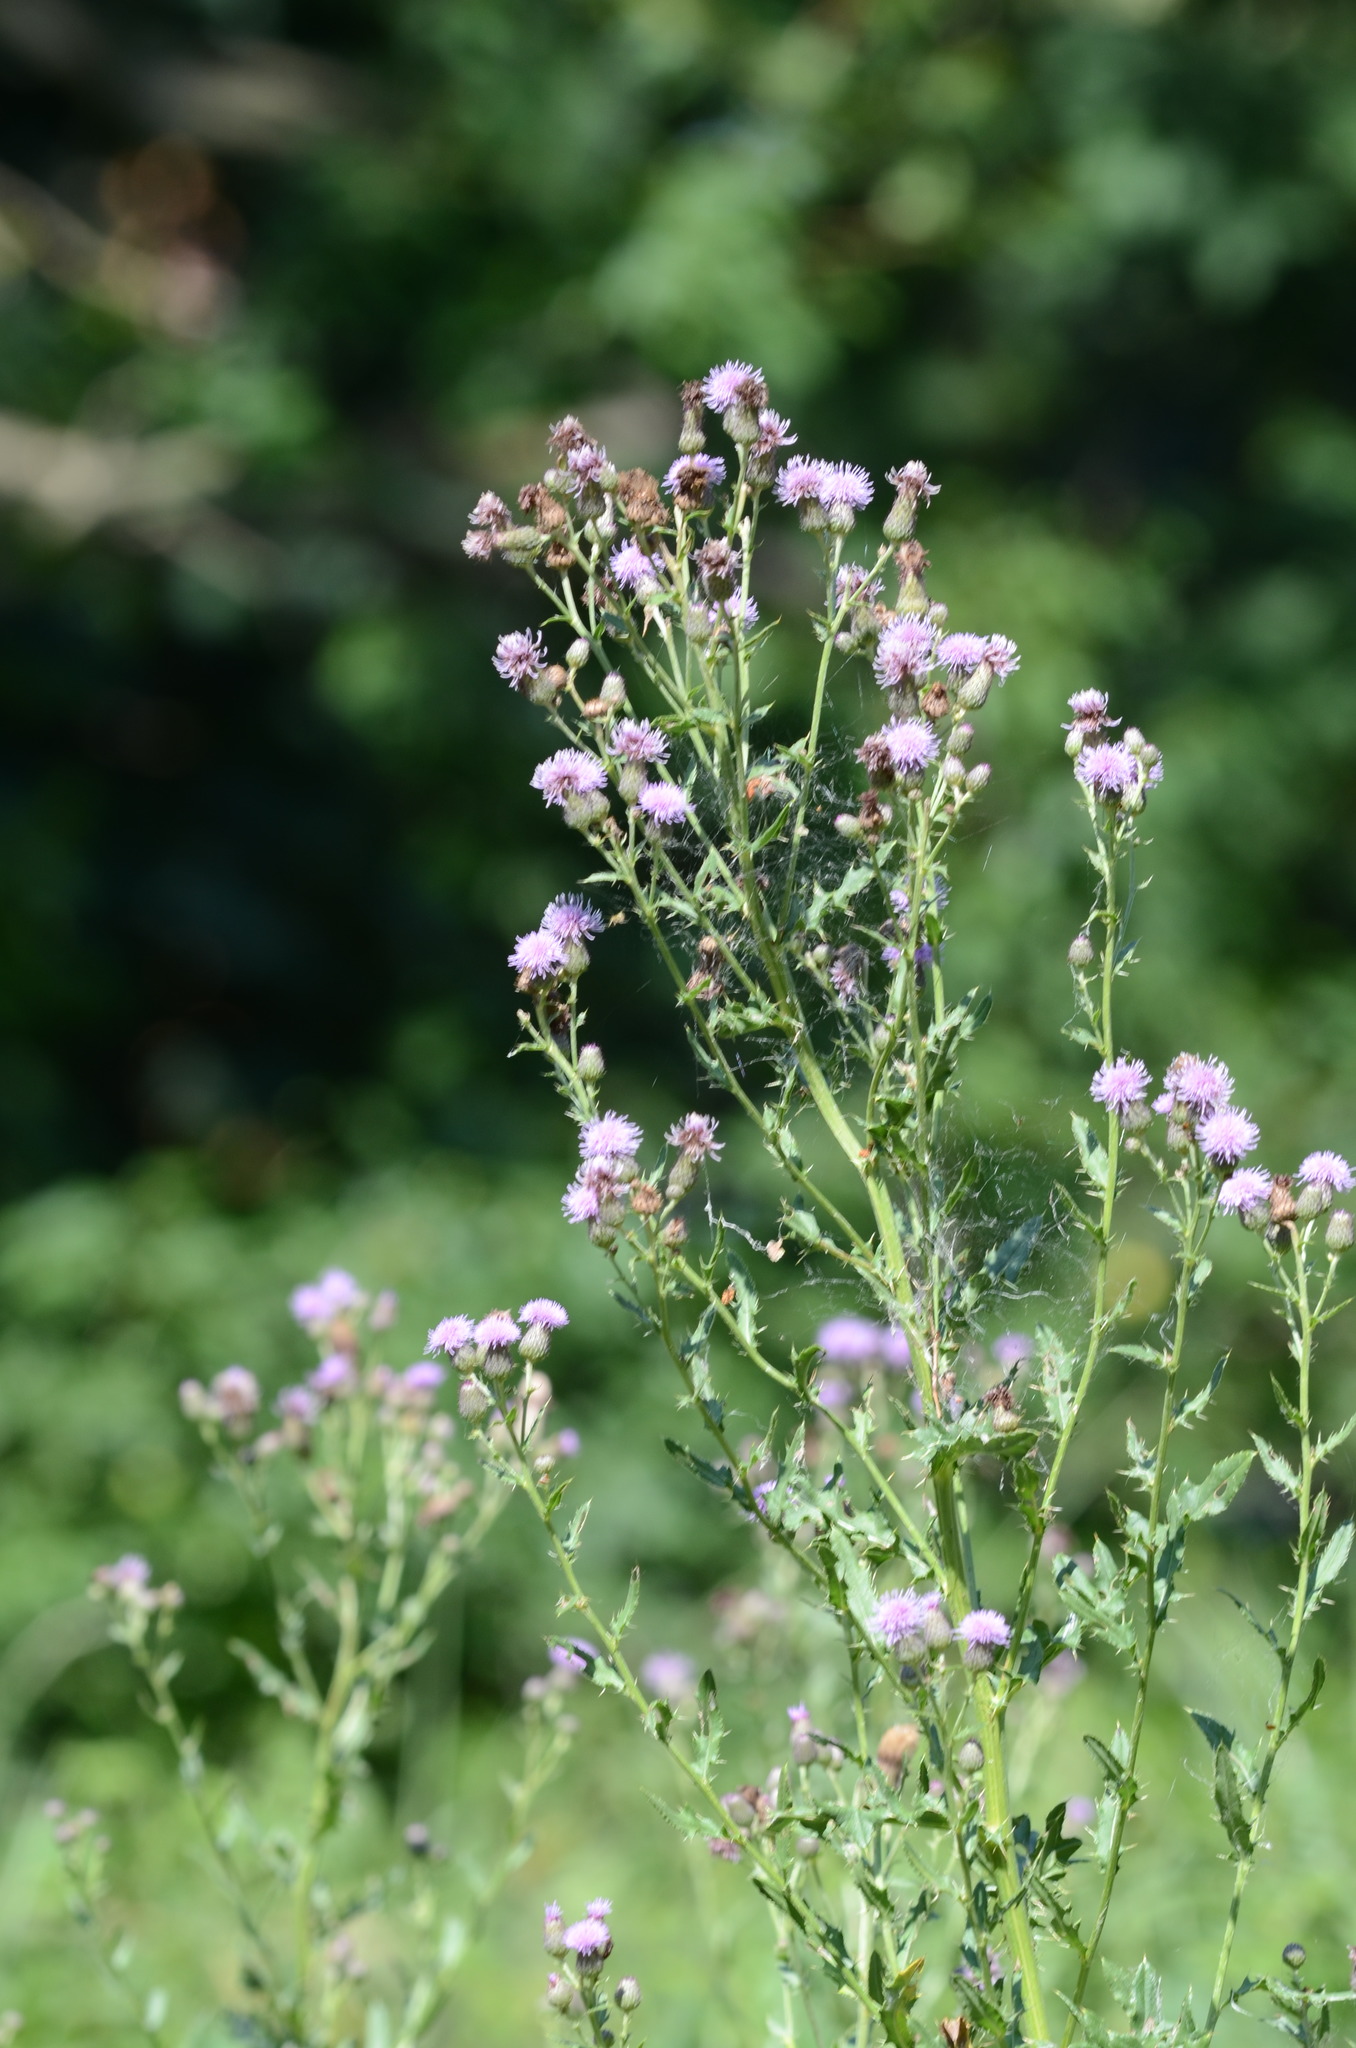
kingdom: Plantae
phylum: Tracheophyta
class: Magnoliopsida
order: Asterales
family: Asteraceae
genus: Cirsium
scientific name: Cirsium arvense
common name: Creeping thistle
